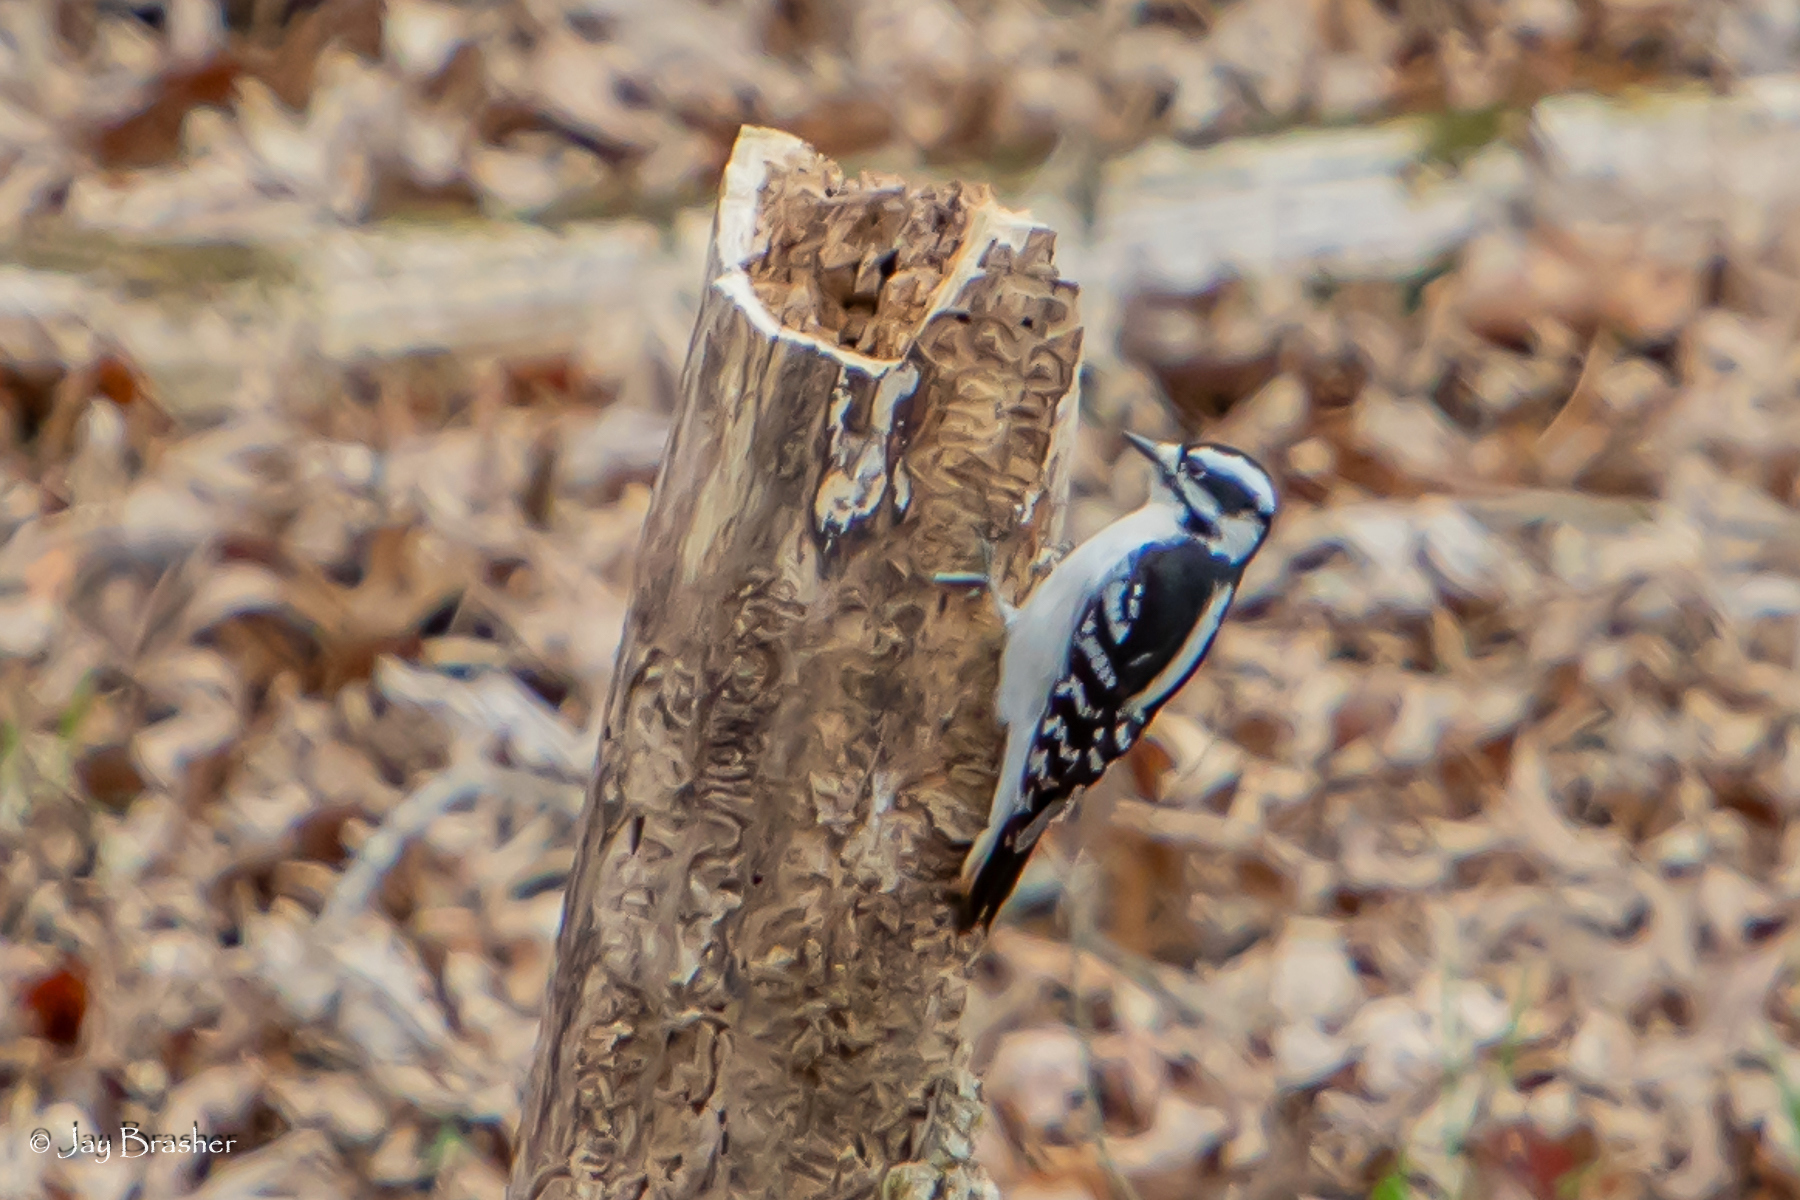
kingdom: Animalia
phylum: Chordata
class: Aves
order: Piciformes
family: Picidae
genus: Dryobates
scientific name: Dryobates pubescens
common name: Downy woodpecker
